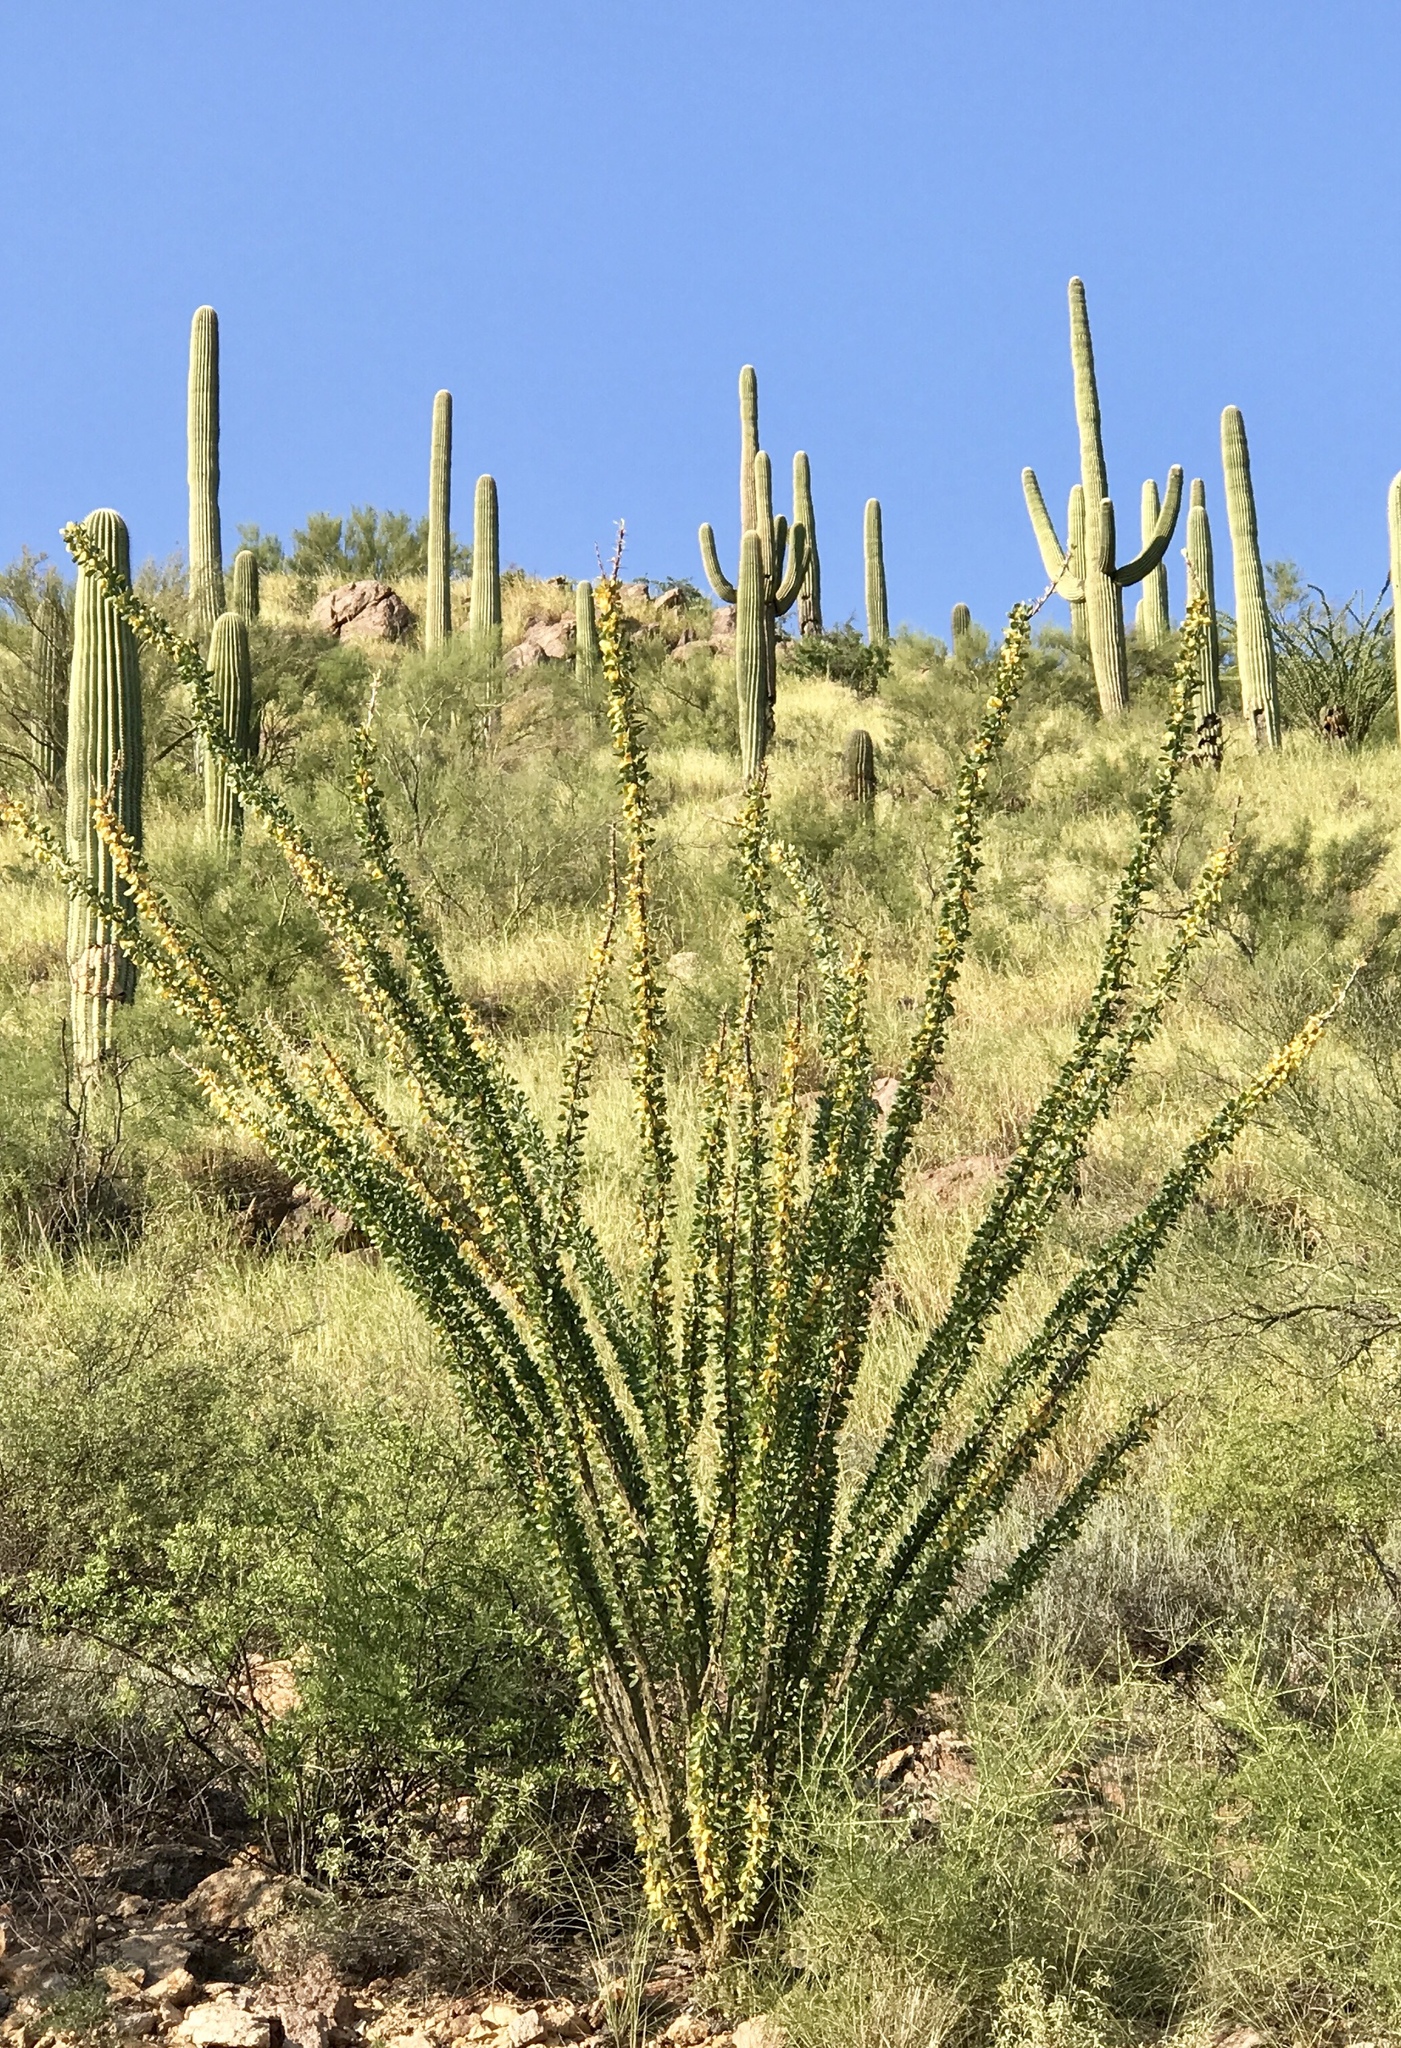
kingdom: Plantae
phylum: Tracheophyta
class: Magnoliopsida
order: Ericales
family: Fouquieriaceae
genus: Fouquieria
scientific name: Fouquieria splendens
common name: Vine-cactus
